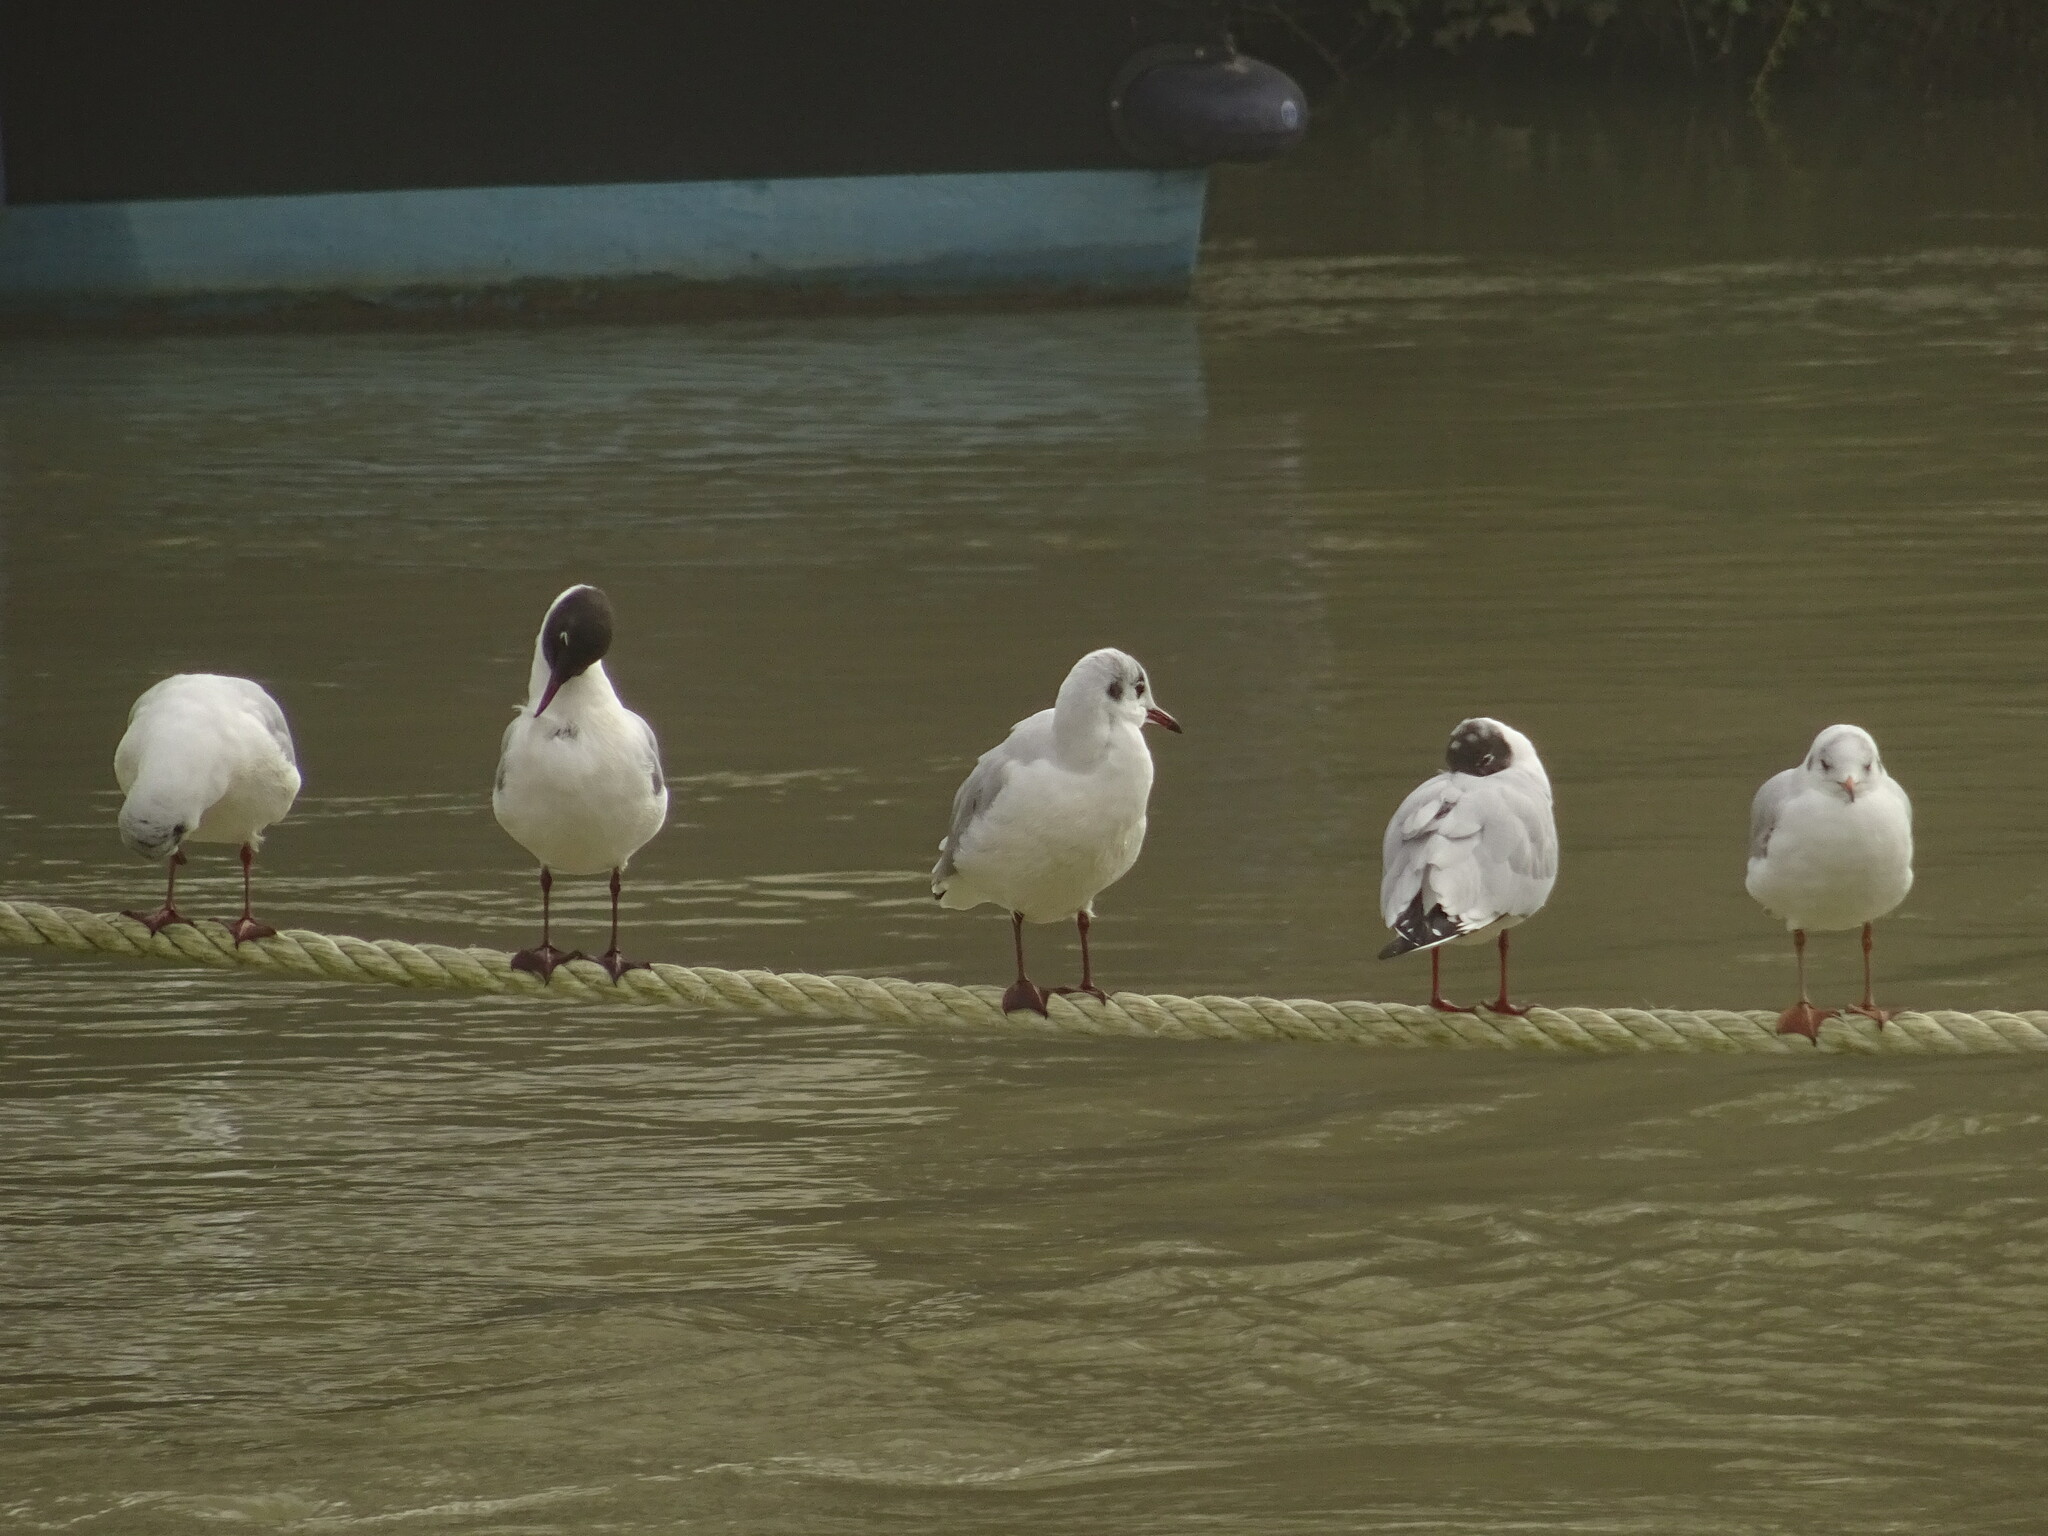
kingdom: Animalia
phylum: Chordata
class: Aves
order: Charadriiformes
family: Laridae
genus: Chroicocephalus
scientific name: Chroicocephalus ridibundus
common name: Black-headed gull
